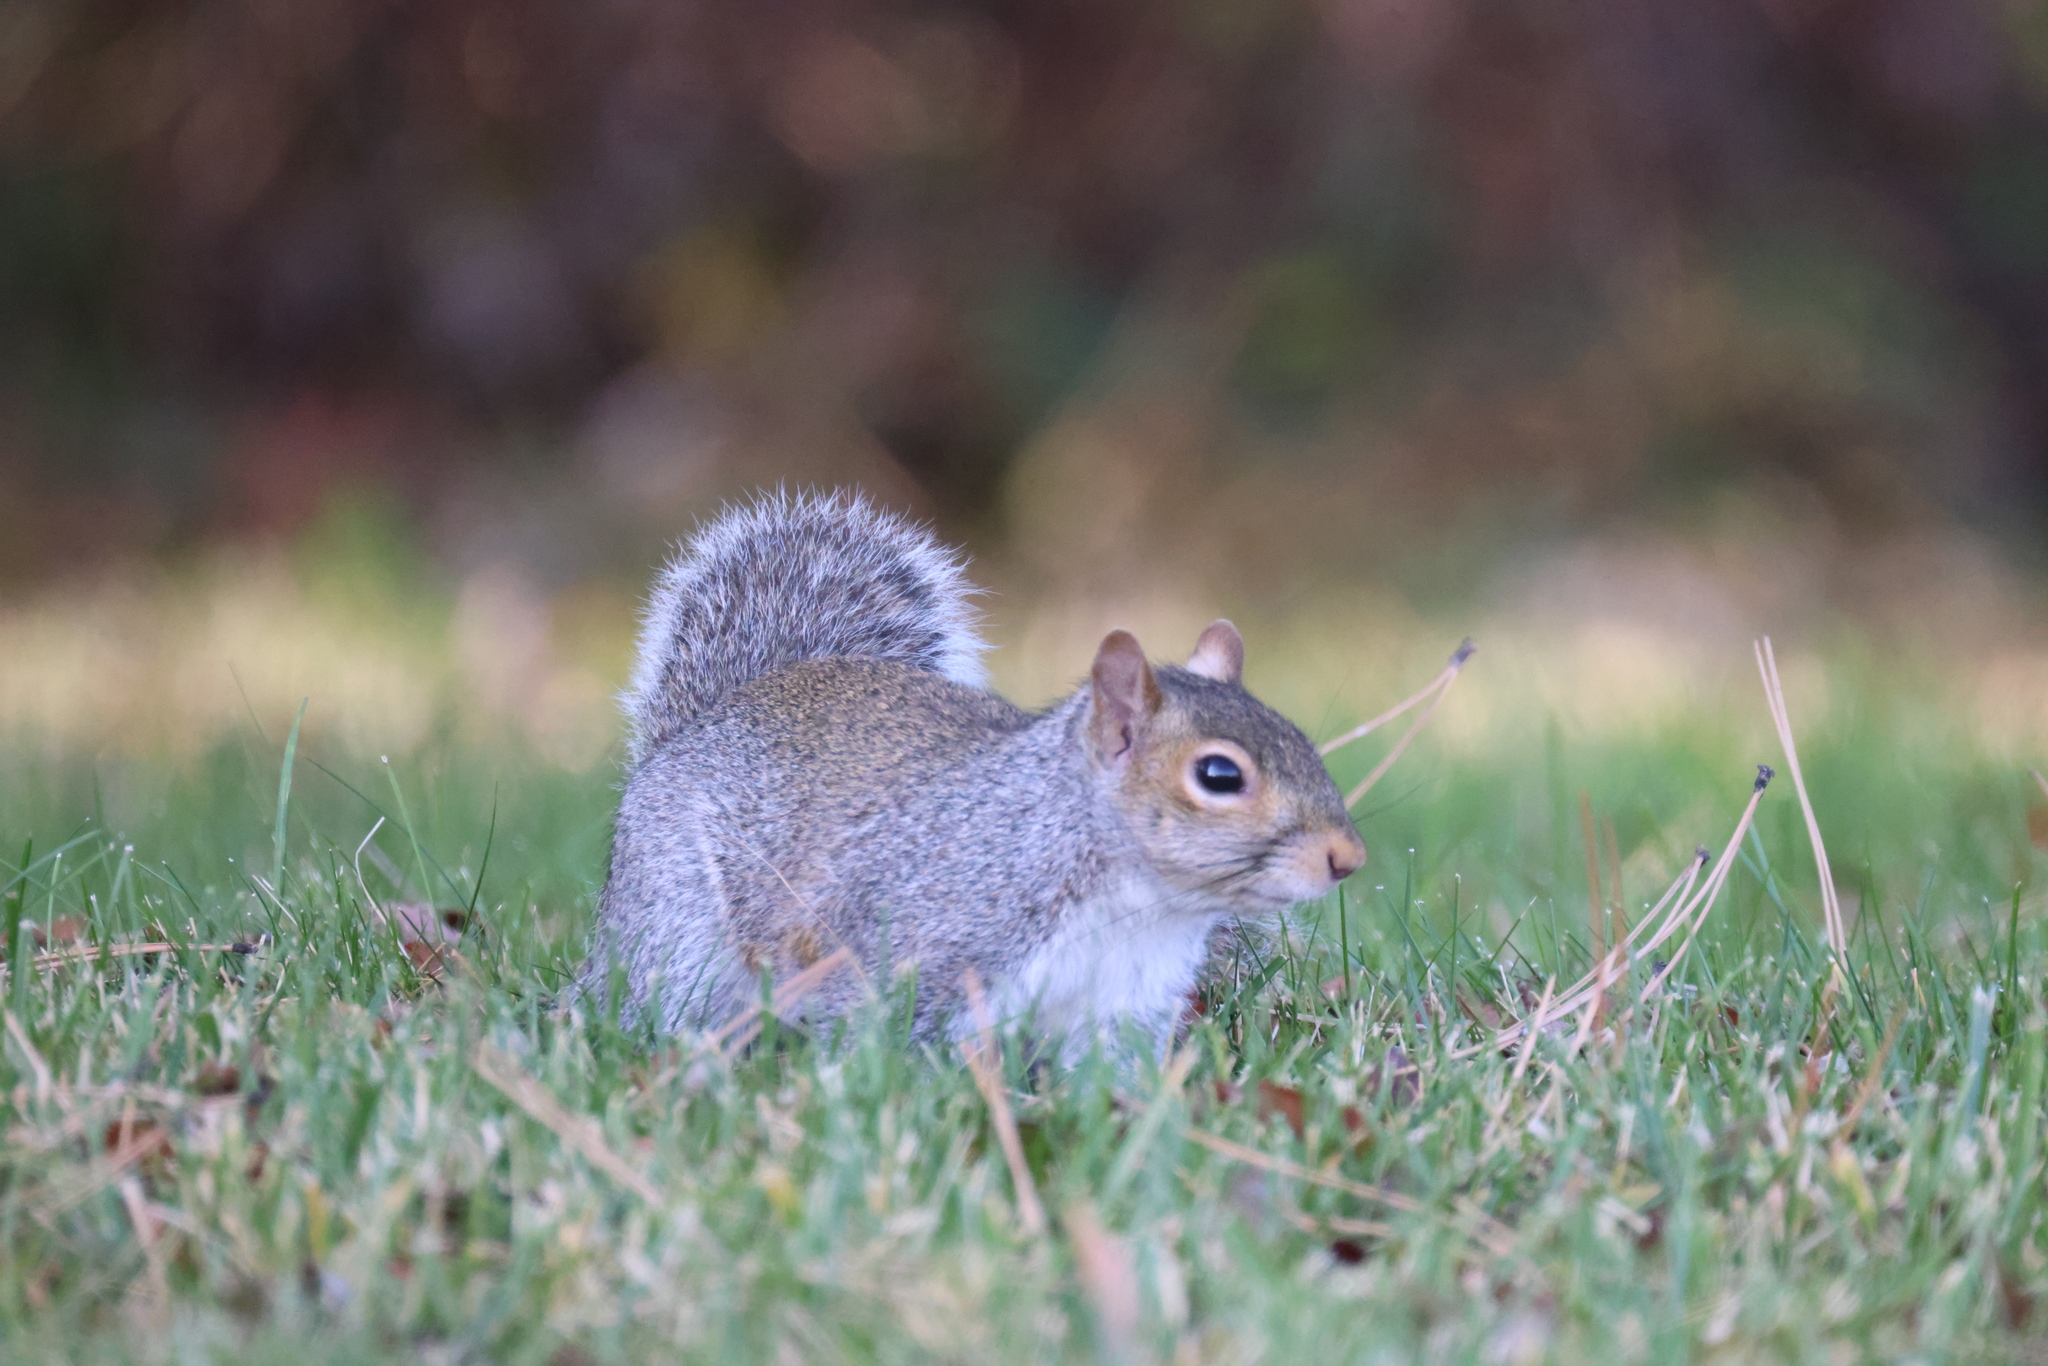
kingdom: Animalia
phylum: Chordata
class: Mammalia
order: Rodentia
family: Sciuridae
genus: Sciurus
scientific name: Sciurus carolinensis
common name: Eastern gray squirrel
